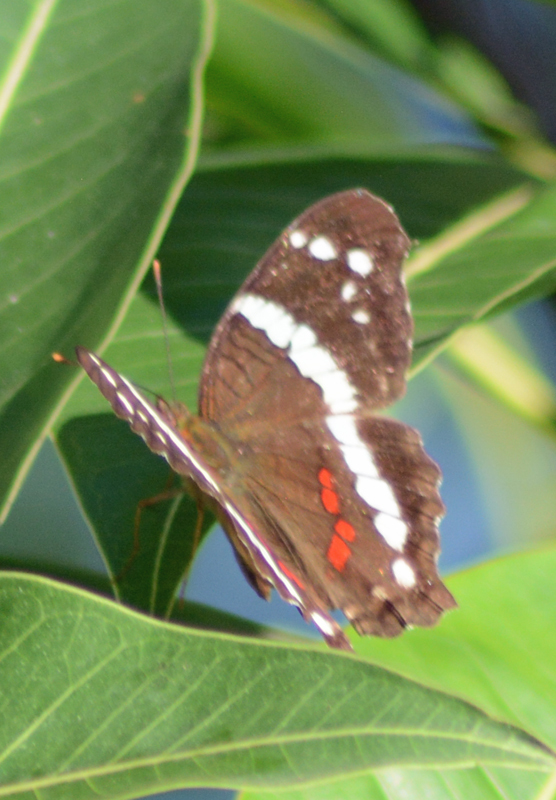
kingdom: Animalia
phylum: Arthropoda
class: Insecta
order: Lepidoptera
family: Nymphalidae
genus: Anartia
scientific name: Anartia fatima
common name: Banded peacock
